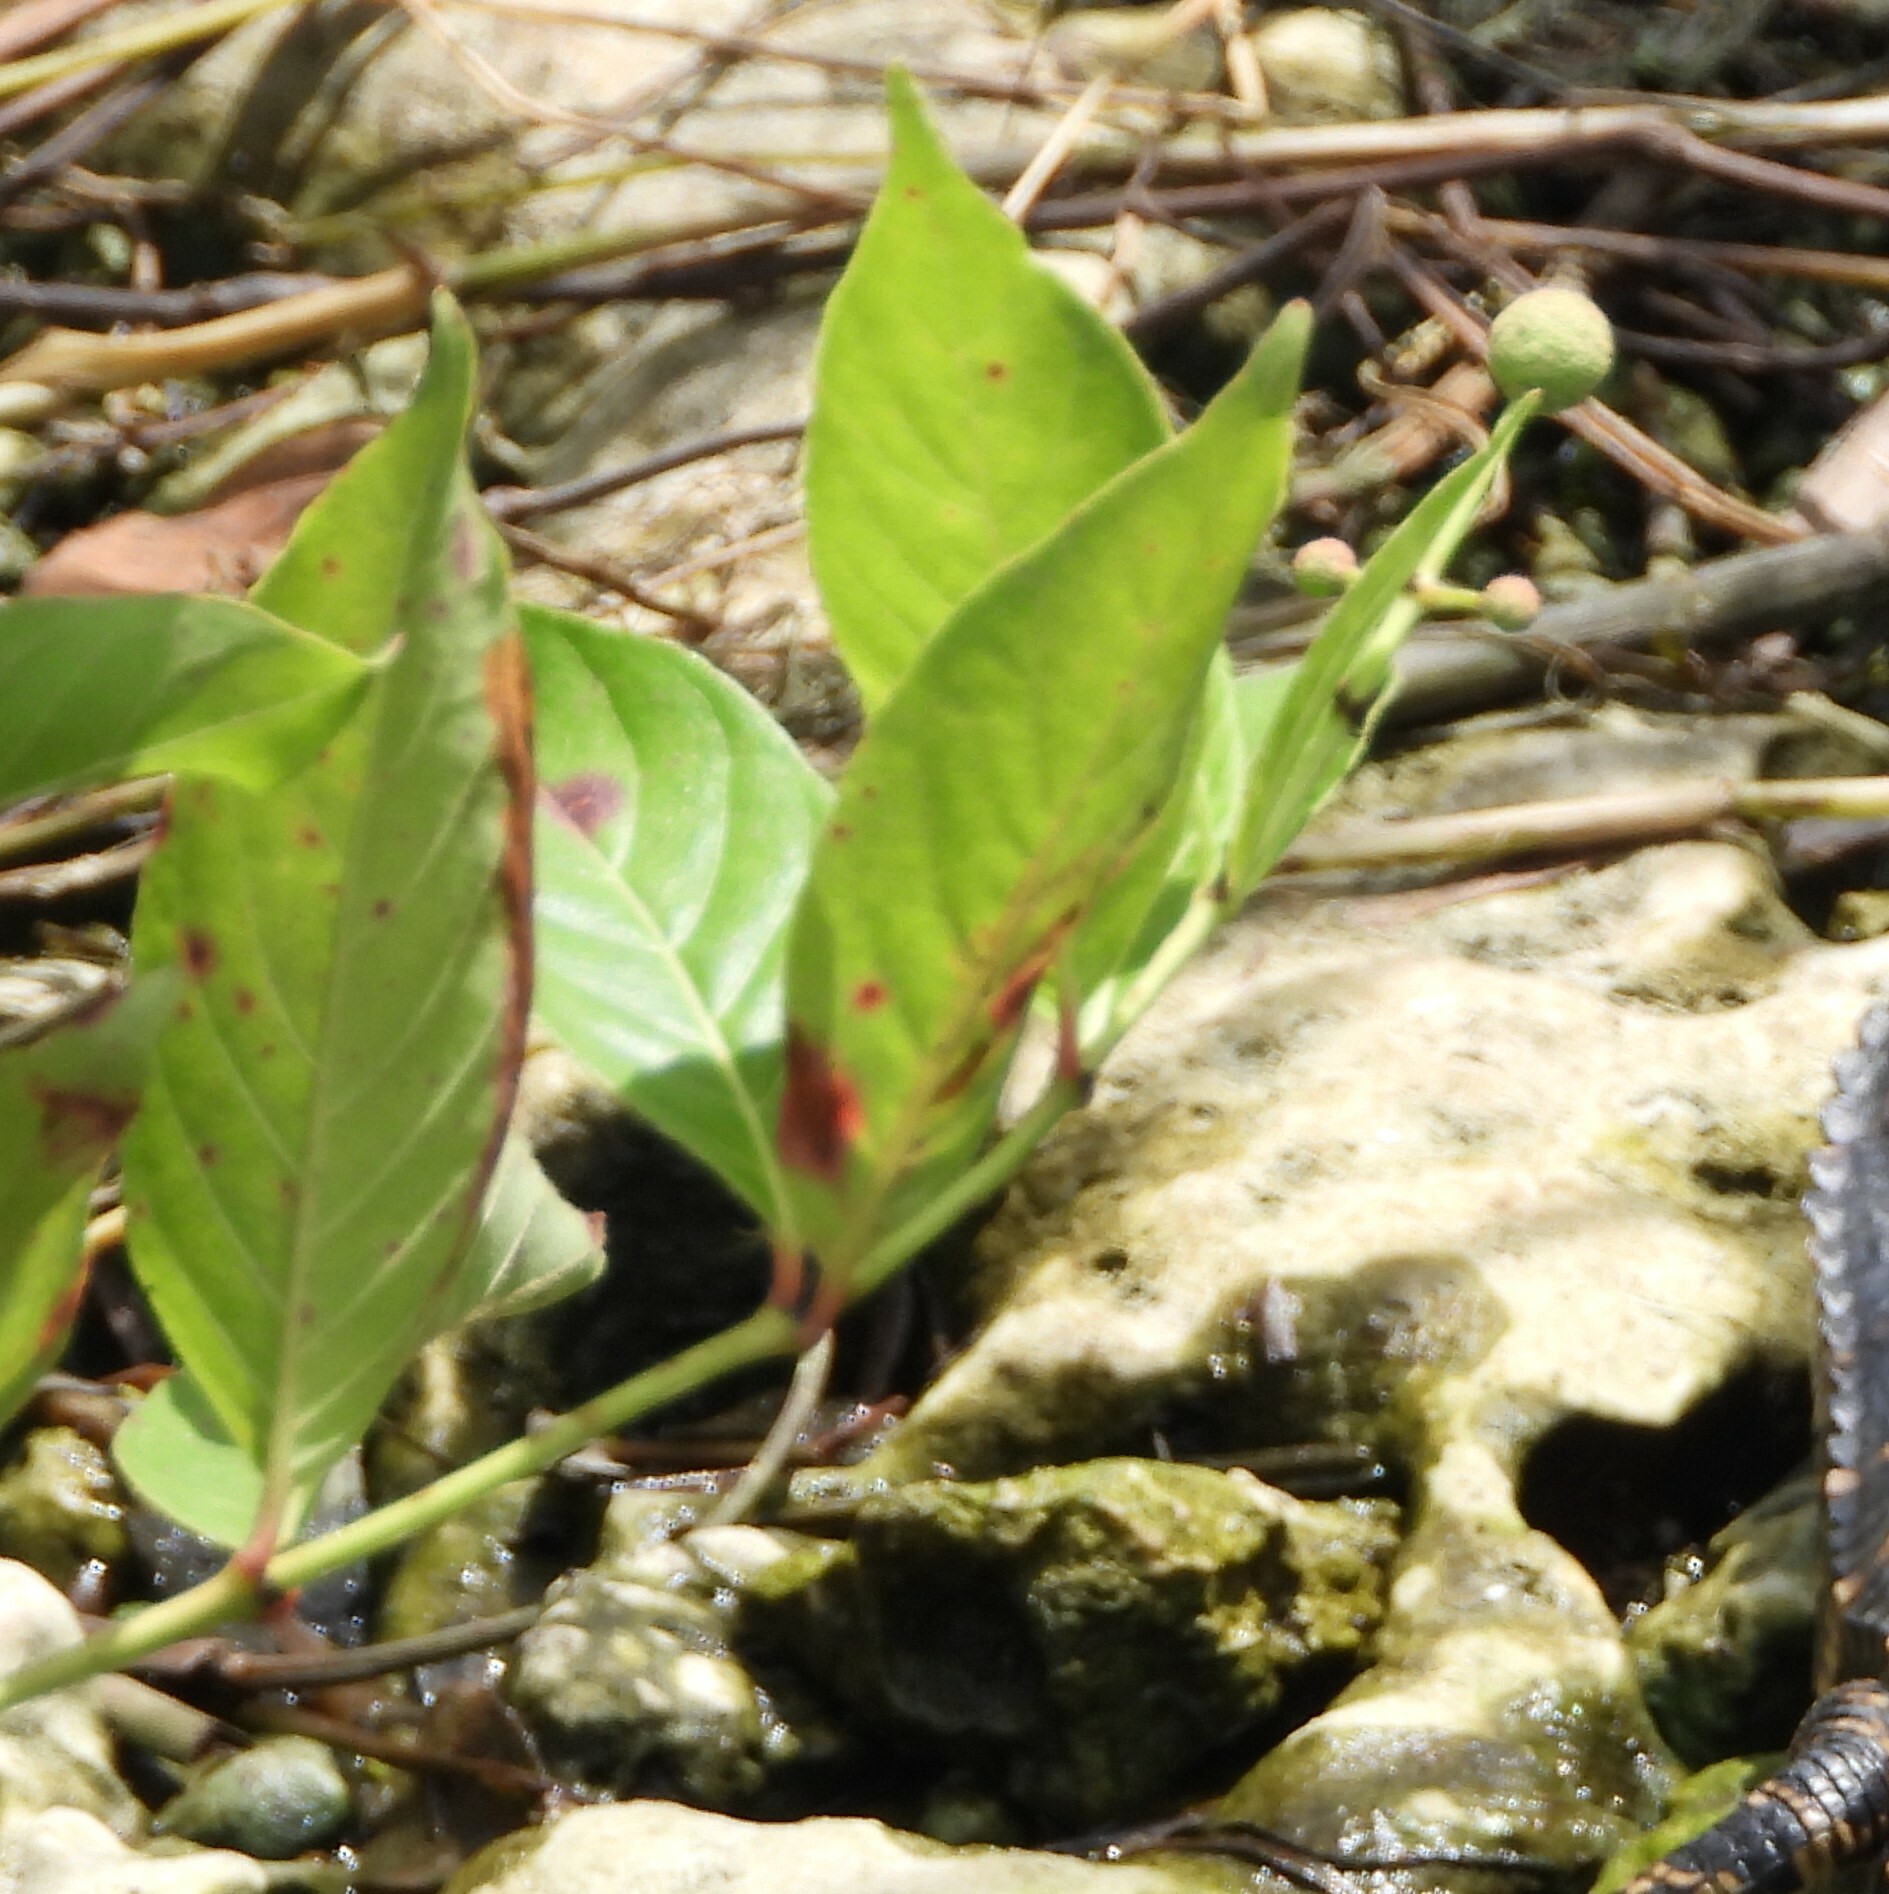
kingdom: Plantae
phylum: Tracheophyta
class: Magnoliopsida
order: Gentianales
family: Rubiaceae
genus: Cephalanthus
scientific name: Cephalanthus occidentalis
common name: Button-willow
